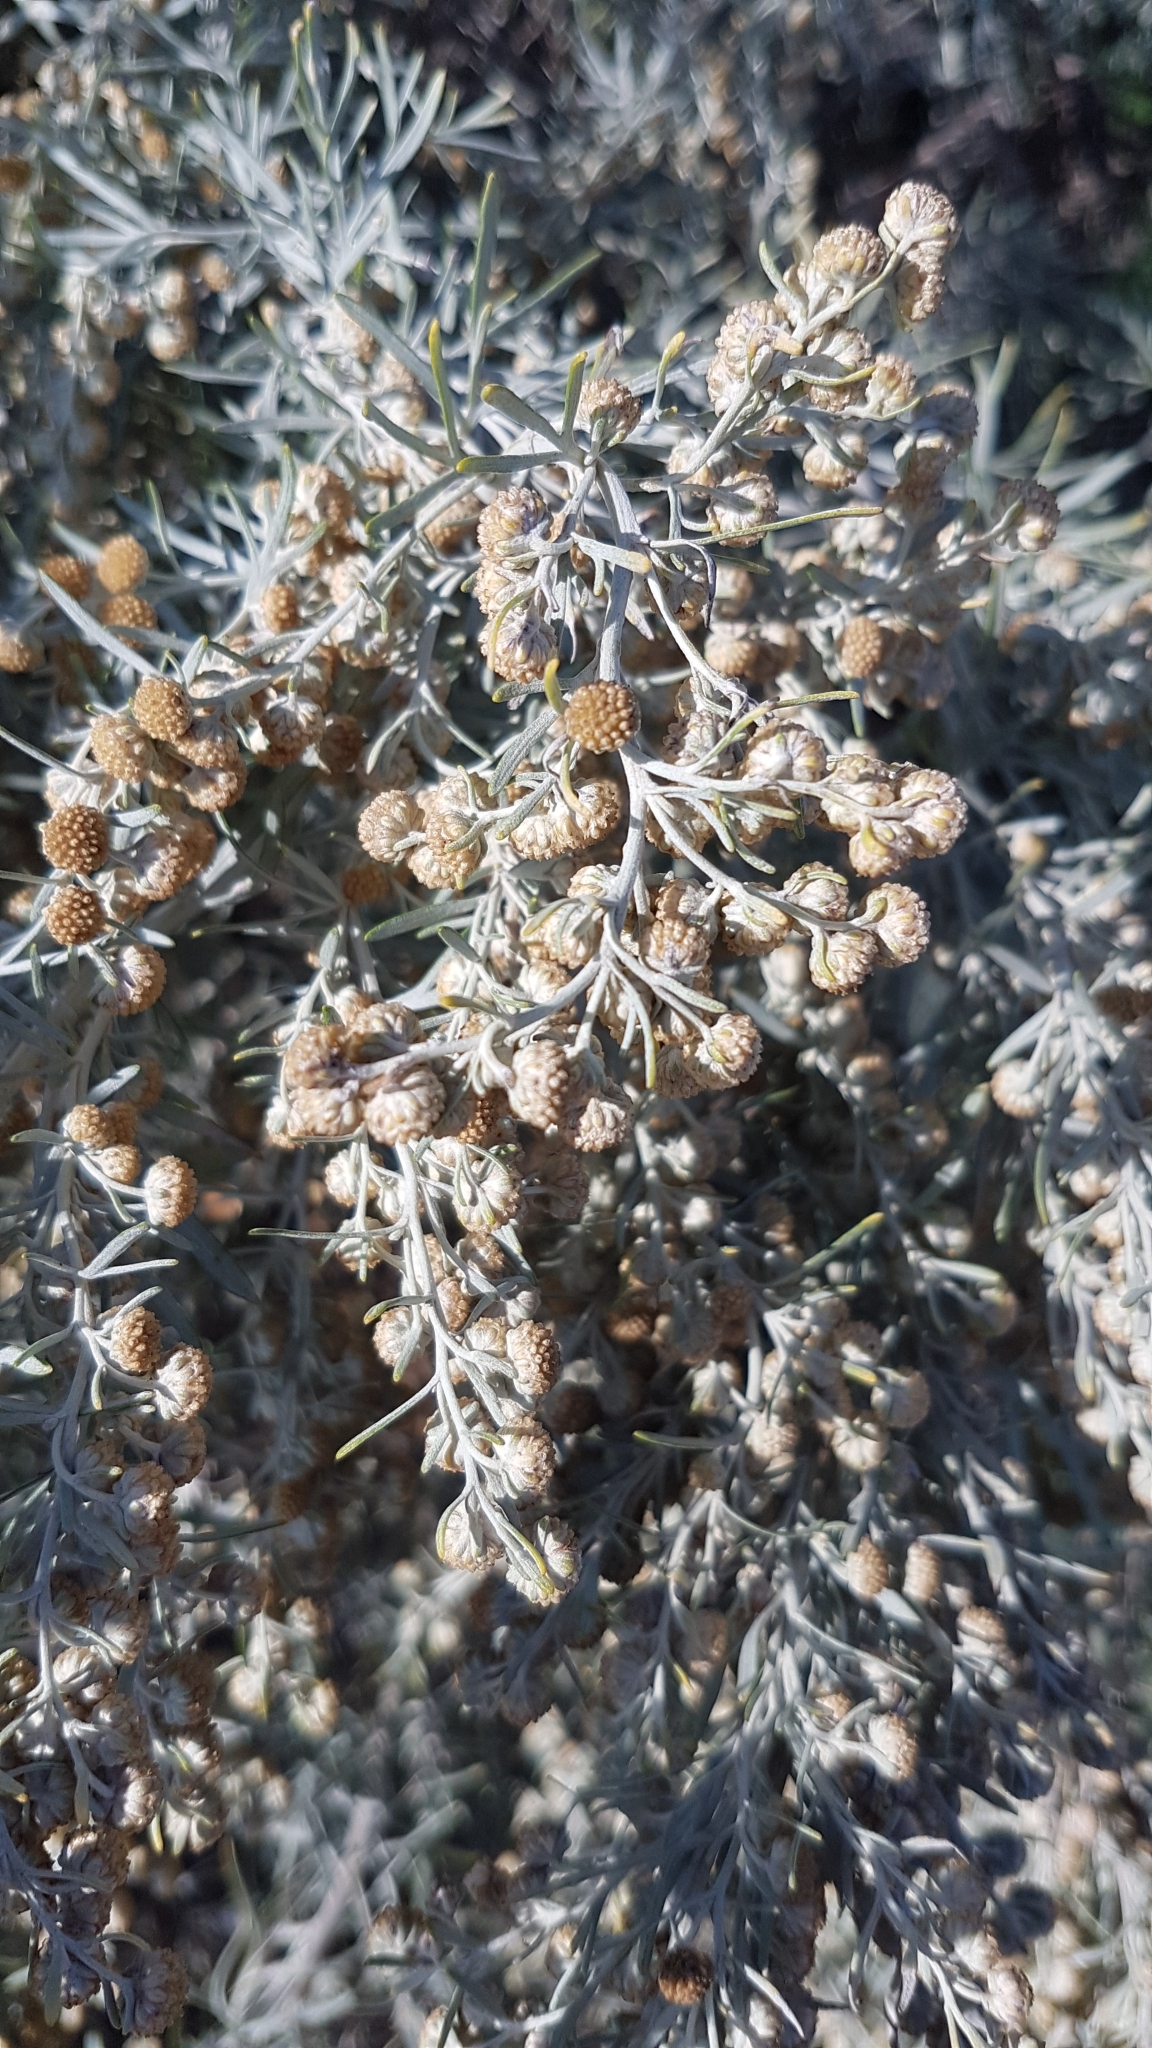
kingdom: Plantae
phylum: Tracheophyta
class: Magnoliopsida
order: Asterales
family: Asteraceae
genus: Artemisia
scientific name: Artemisia arborescens
